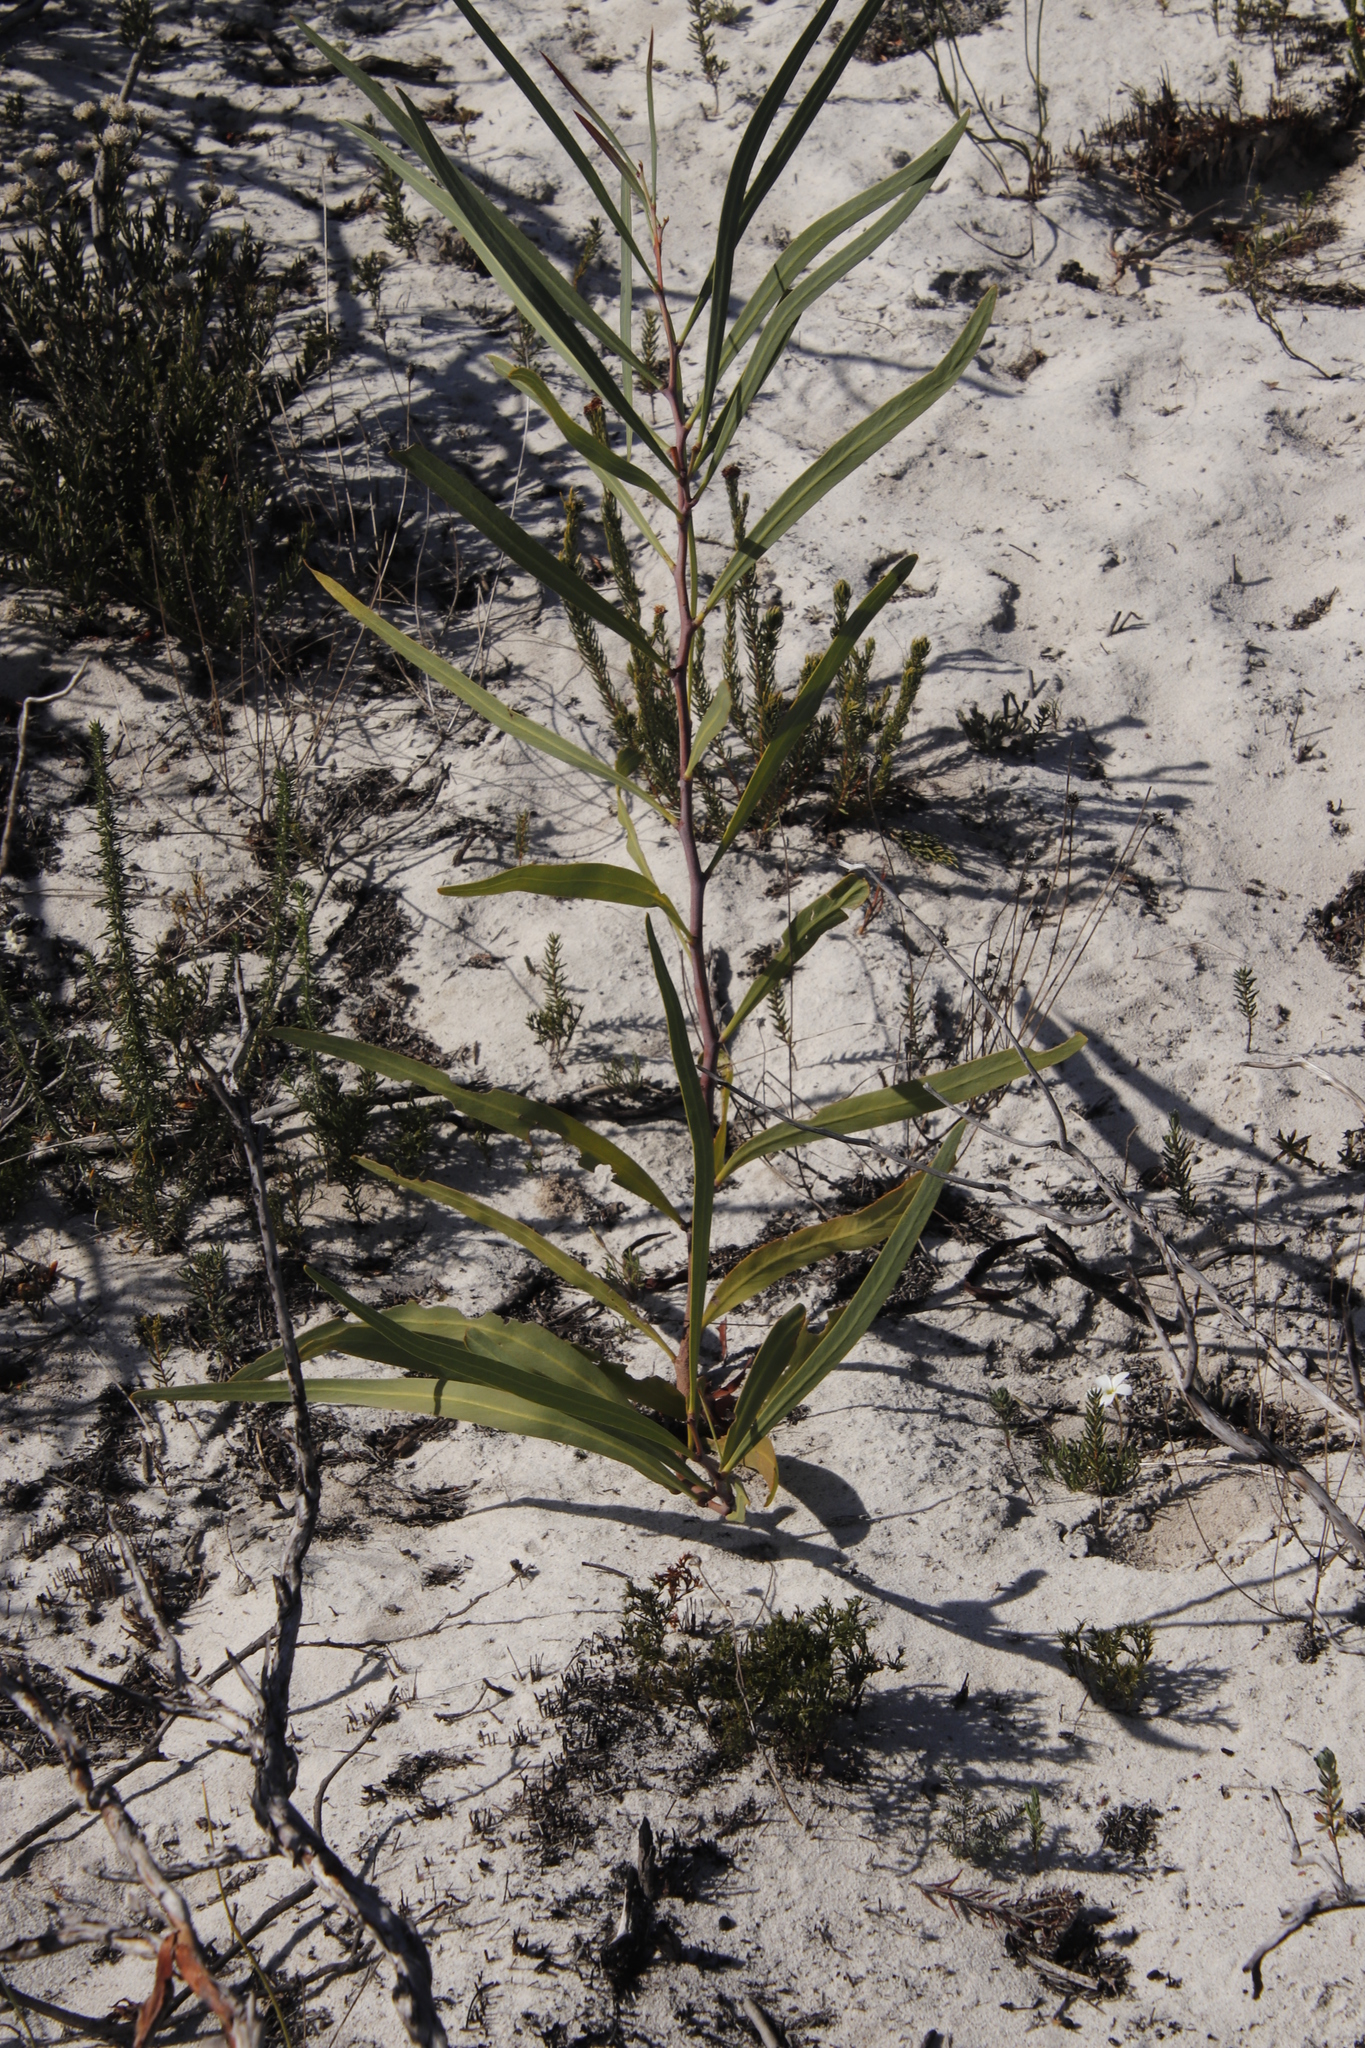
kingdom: Plantae
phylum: Tracheophyta
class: Magnoliopsida
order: Fabales
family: Fabaceae
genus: Acacia
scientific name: Acacia saligna
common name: Orange wattle
